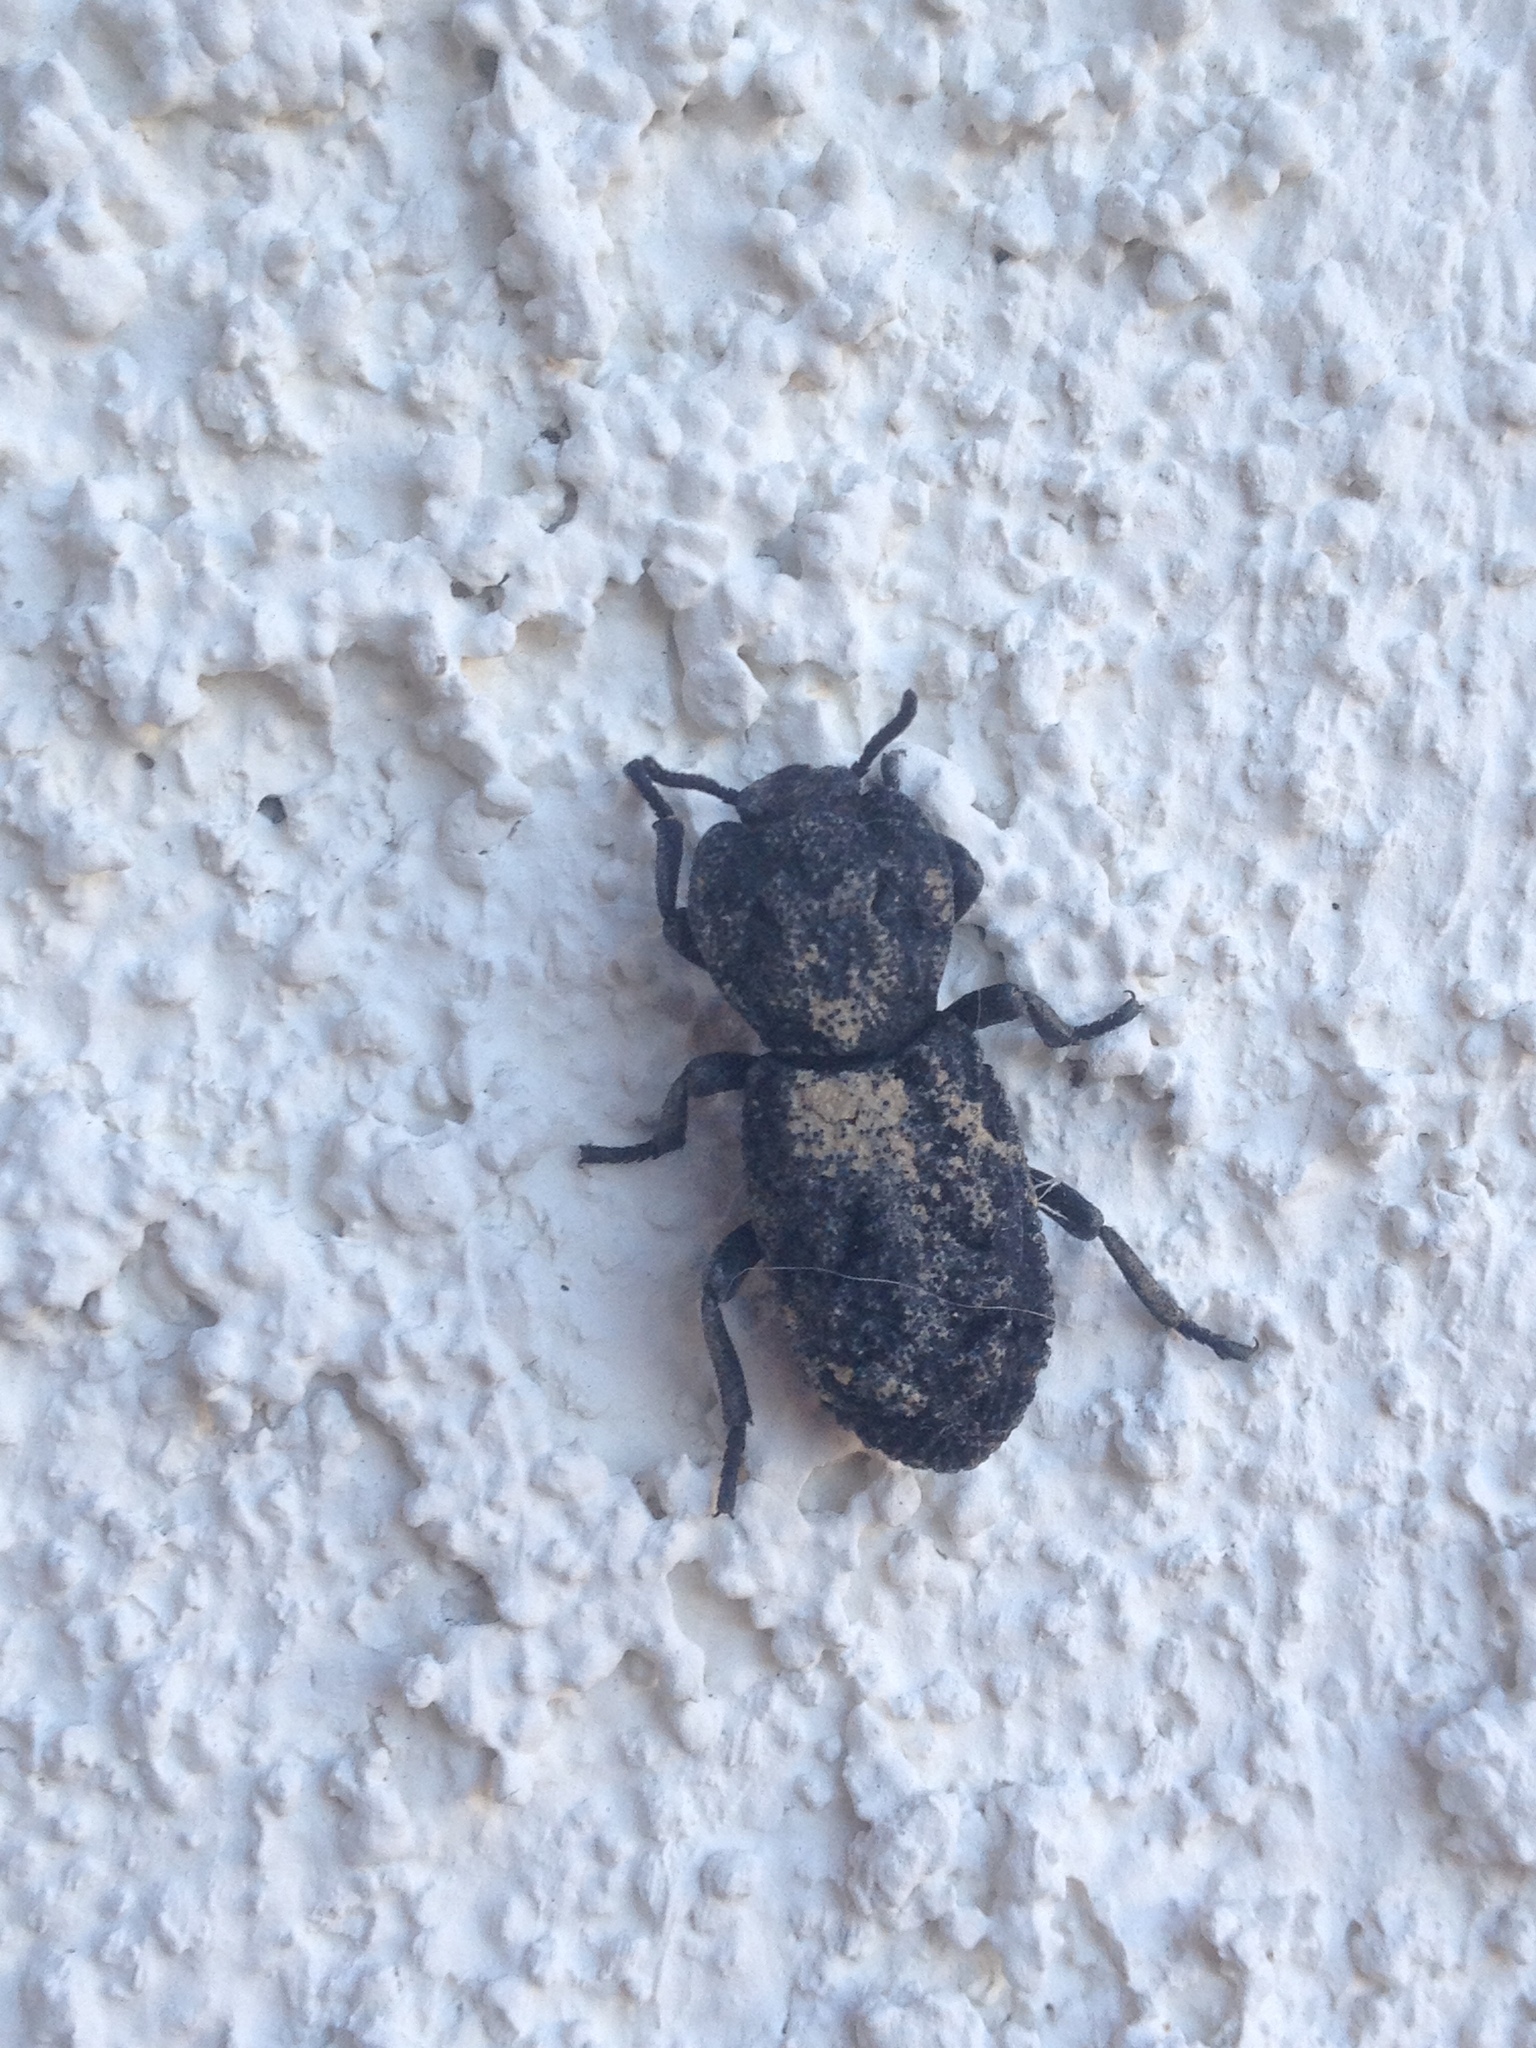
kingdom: Animalia
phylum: Arthropoda
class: Insecta
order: Coleoptera
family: Zopheridae
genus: Phloeodes
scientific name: Phloeodes diabolicus
